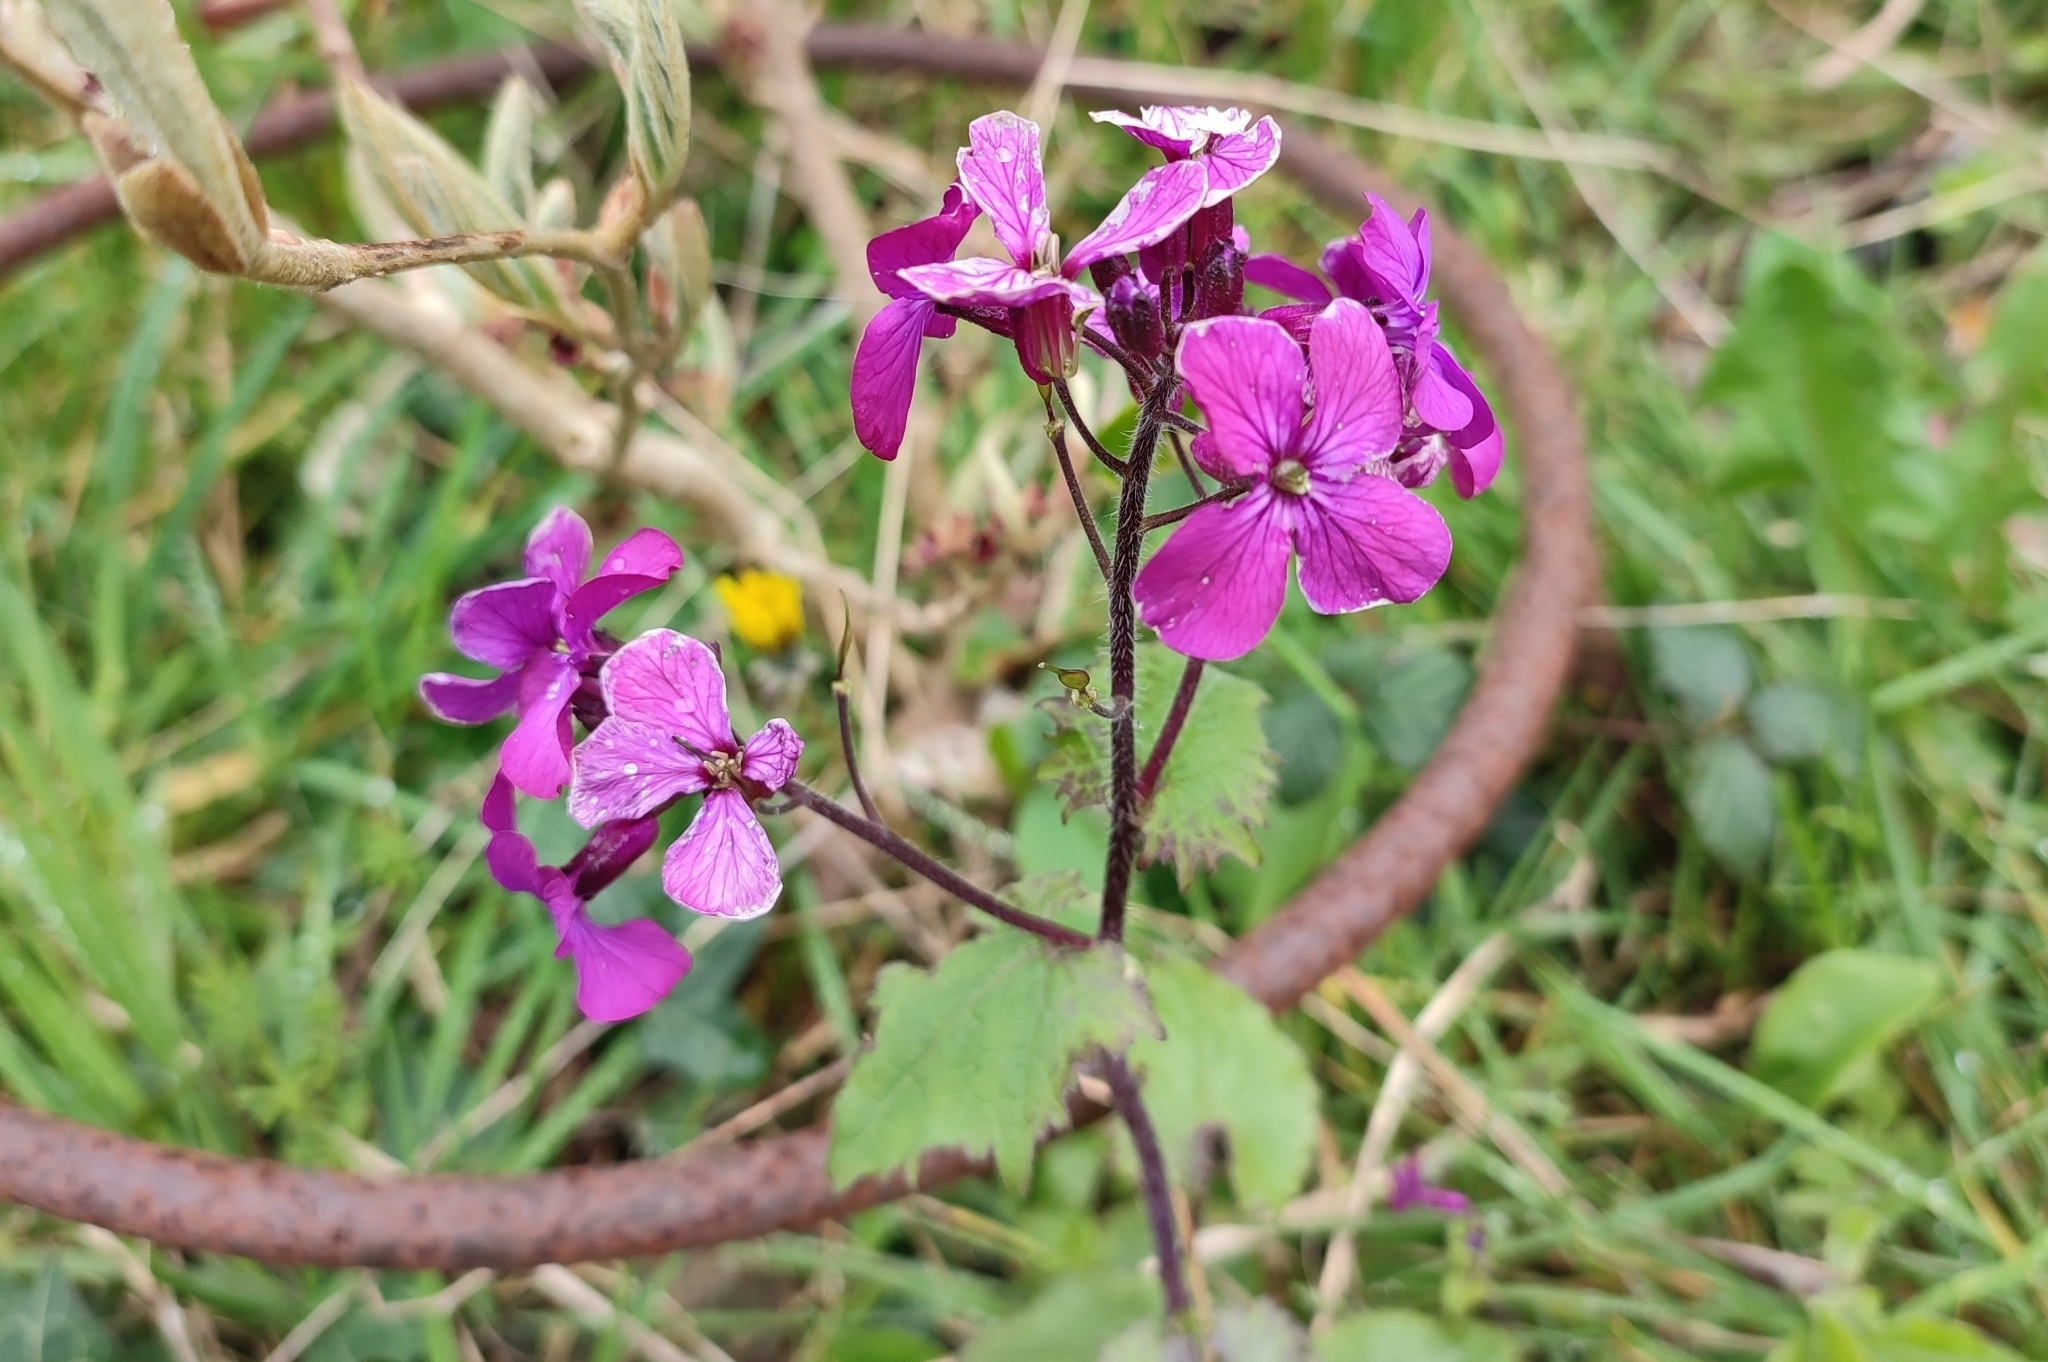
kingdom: Plantae
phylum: Tracheophyta
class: Magnoliopsida
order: Brassicales
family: Brassicaceae
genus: Lunaria
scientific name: Lunaria annua
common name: Honesty
